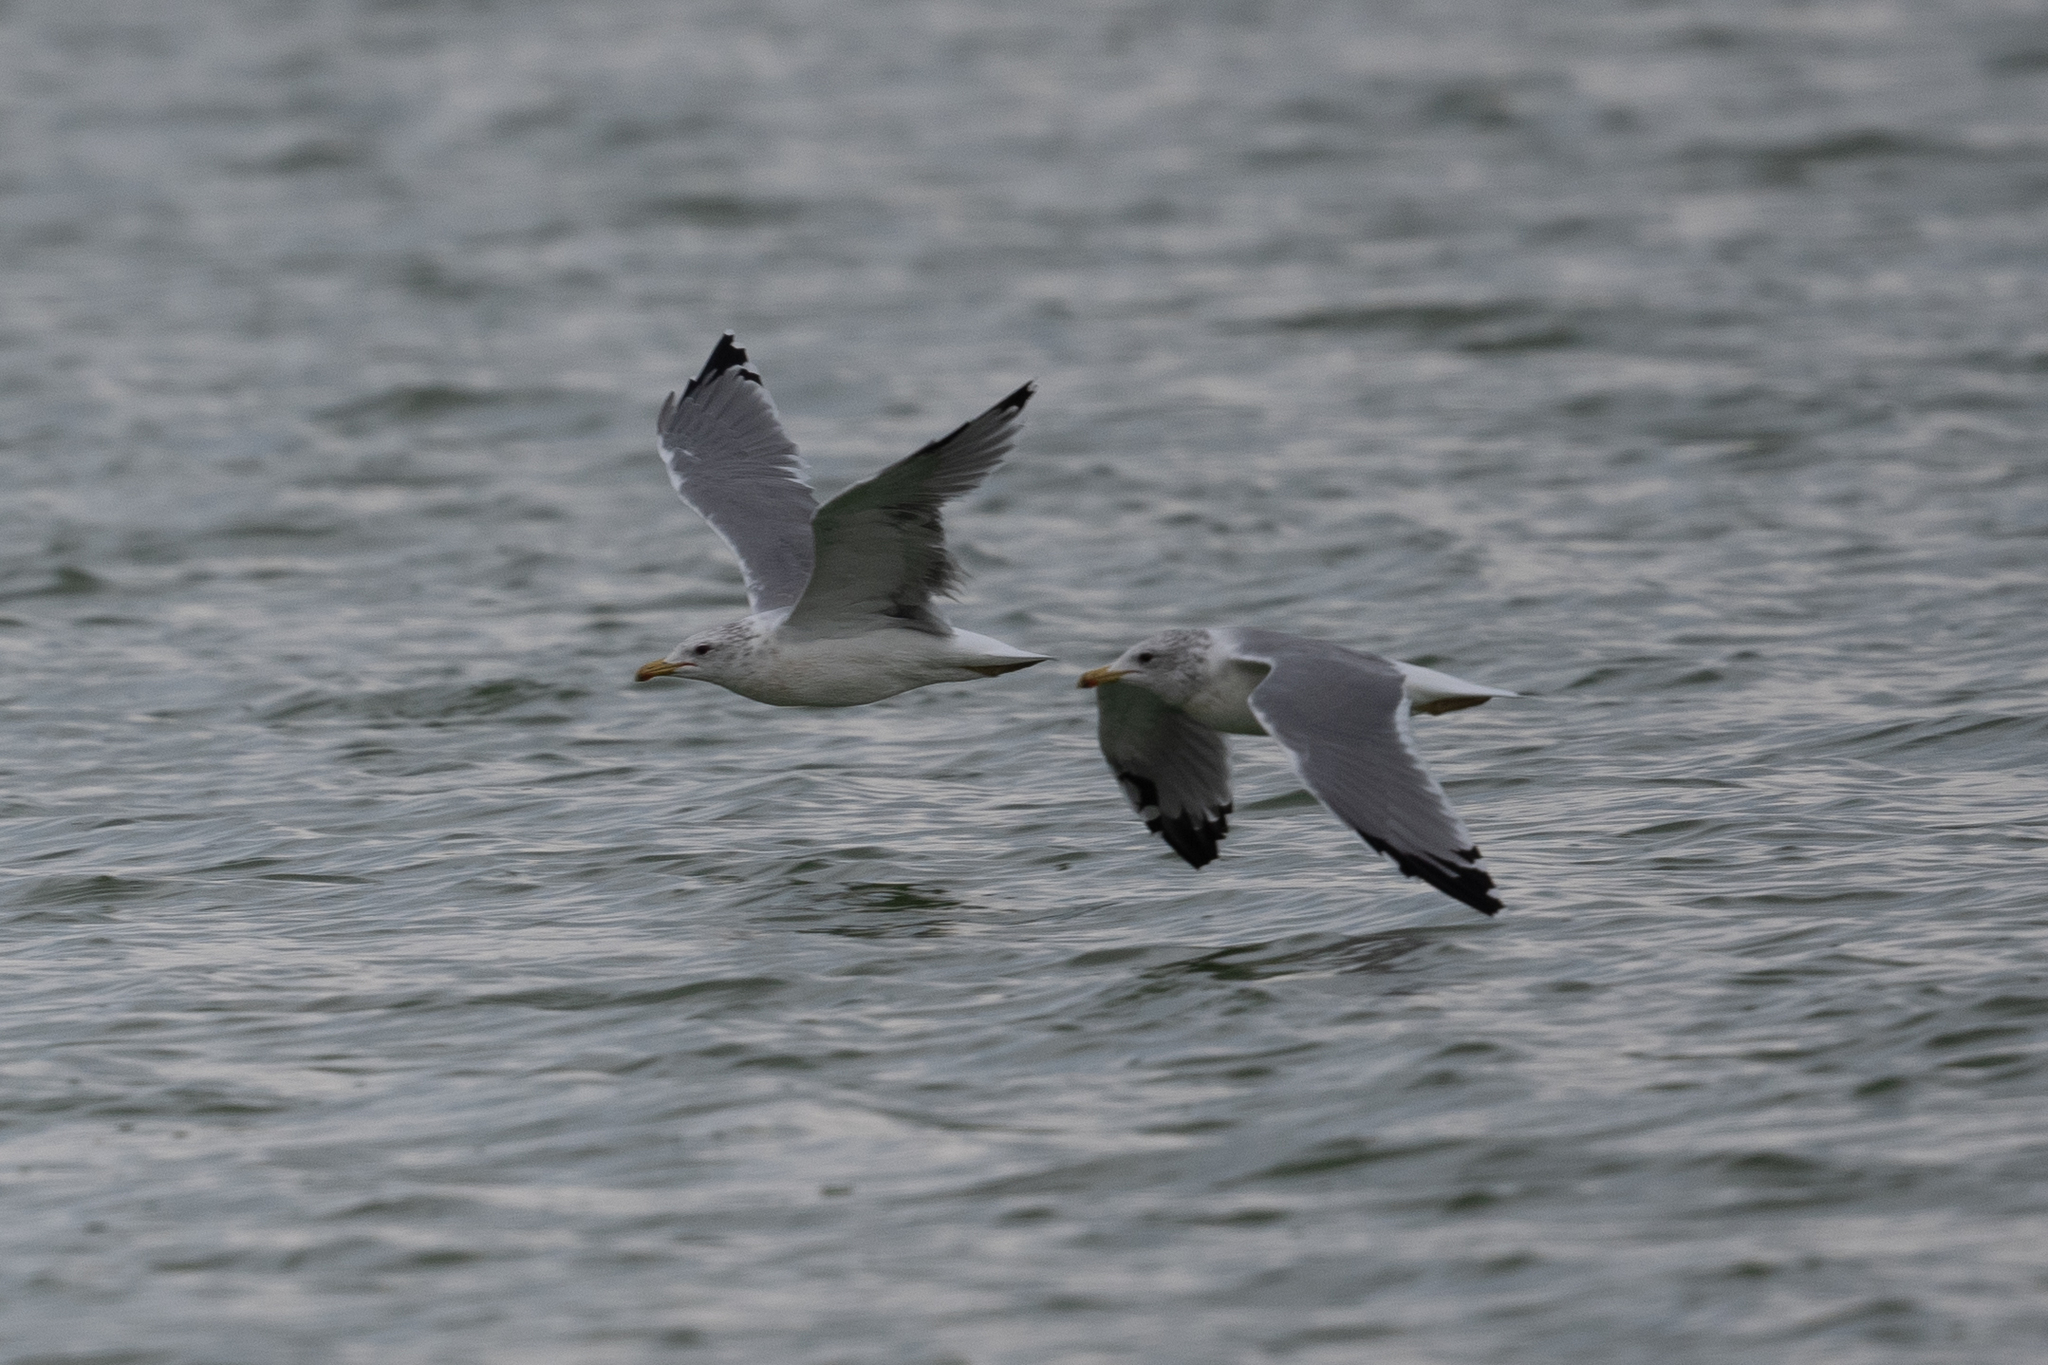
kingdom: Animalia
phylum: Chordata
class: Aves
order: Charadriiformes
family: Laridae
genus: Larus
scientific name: Larus californicus
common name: California gull
